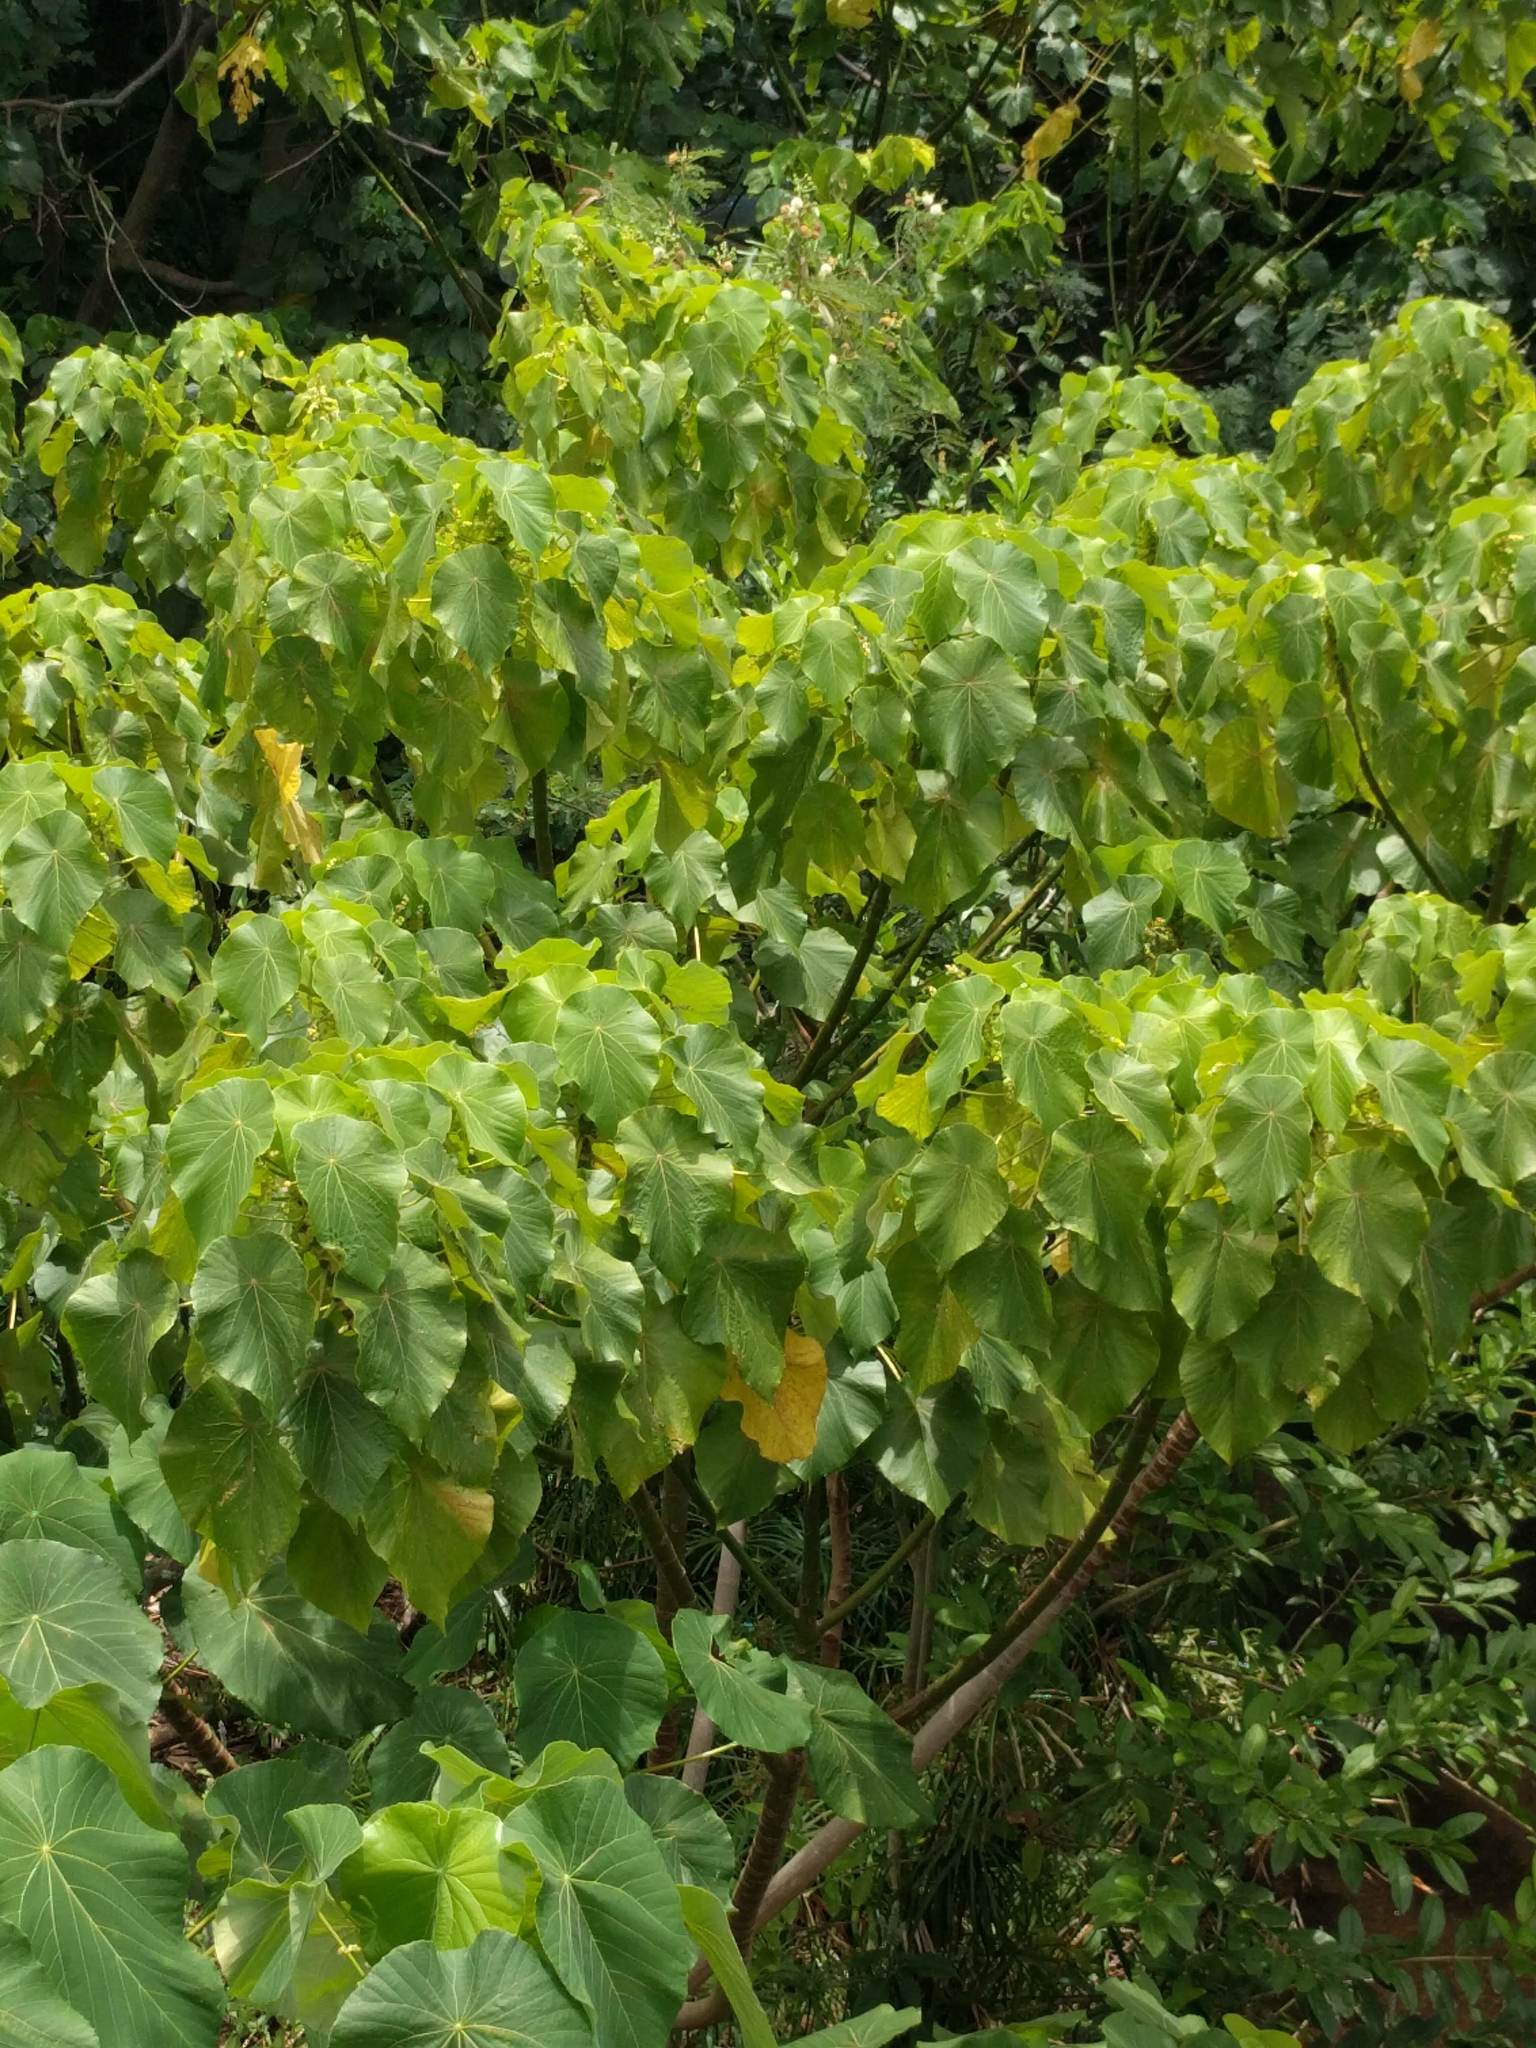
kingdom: Plantae
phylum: Tracheophyta
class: Magnoliopsida
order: Malpighiales
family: Euphorbiaceae
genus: Macaranga
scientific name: Macaranga tanarius
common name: Parasol leaf tree
